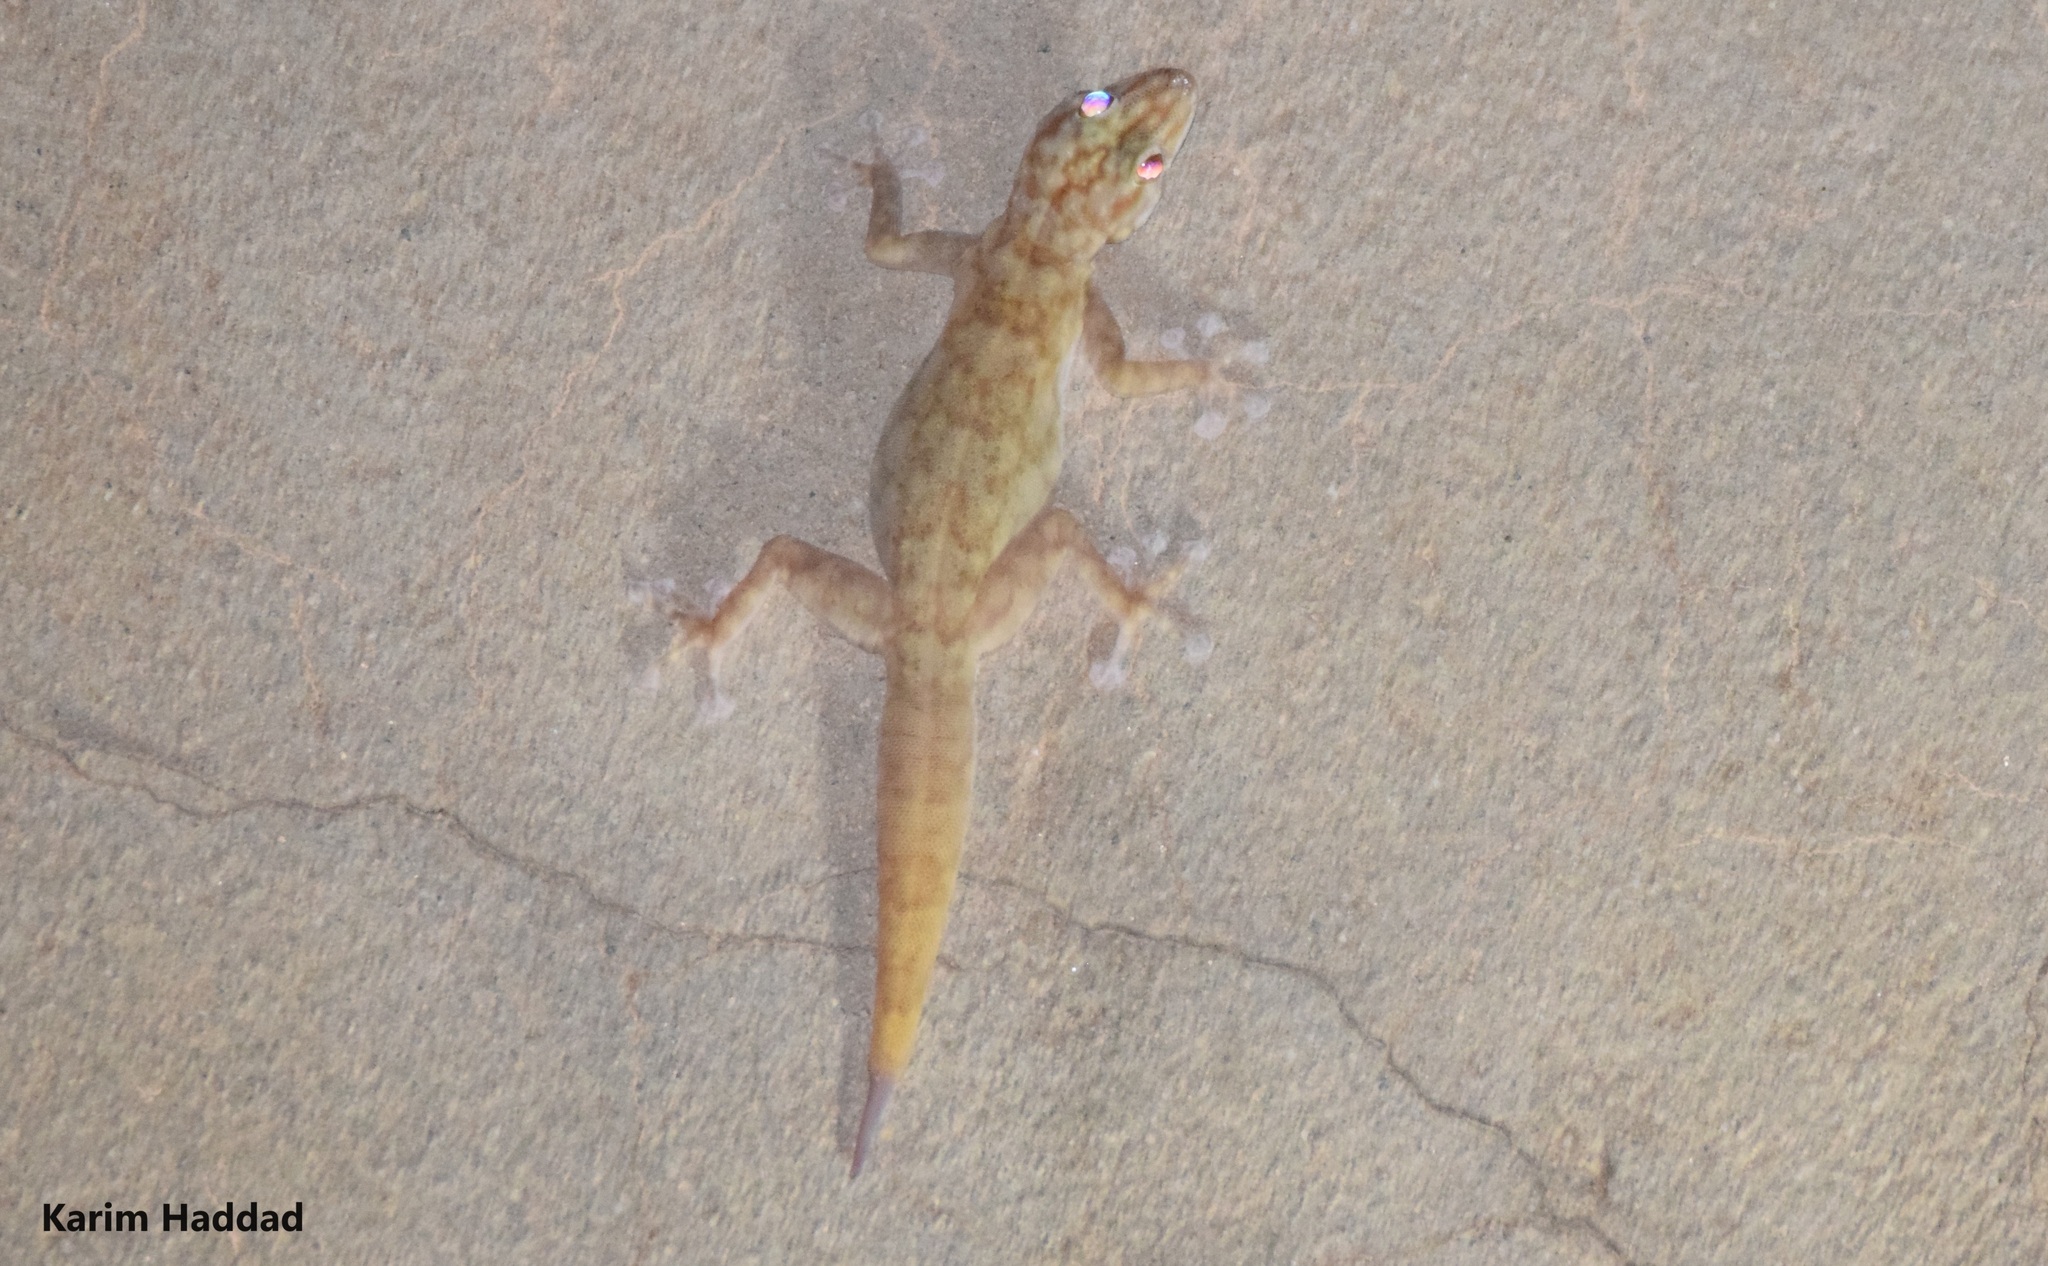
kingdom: Animalia
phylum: Chordata
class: Squamata
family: Phyllodactylidae
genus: Ptyodactylus
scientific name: Ptyodactylus togoensis
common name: Togo fan-footed gecko
